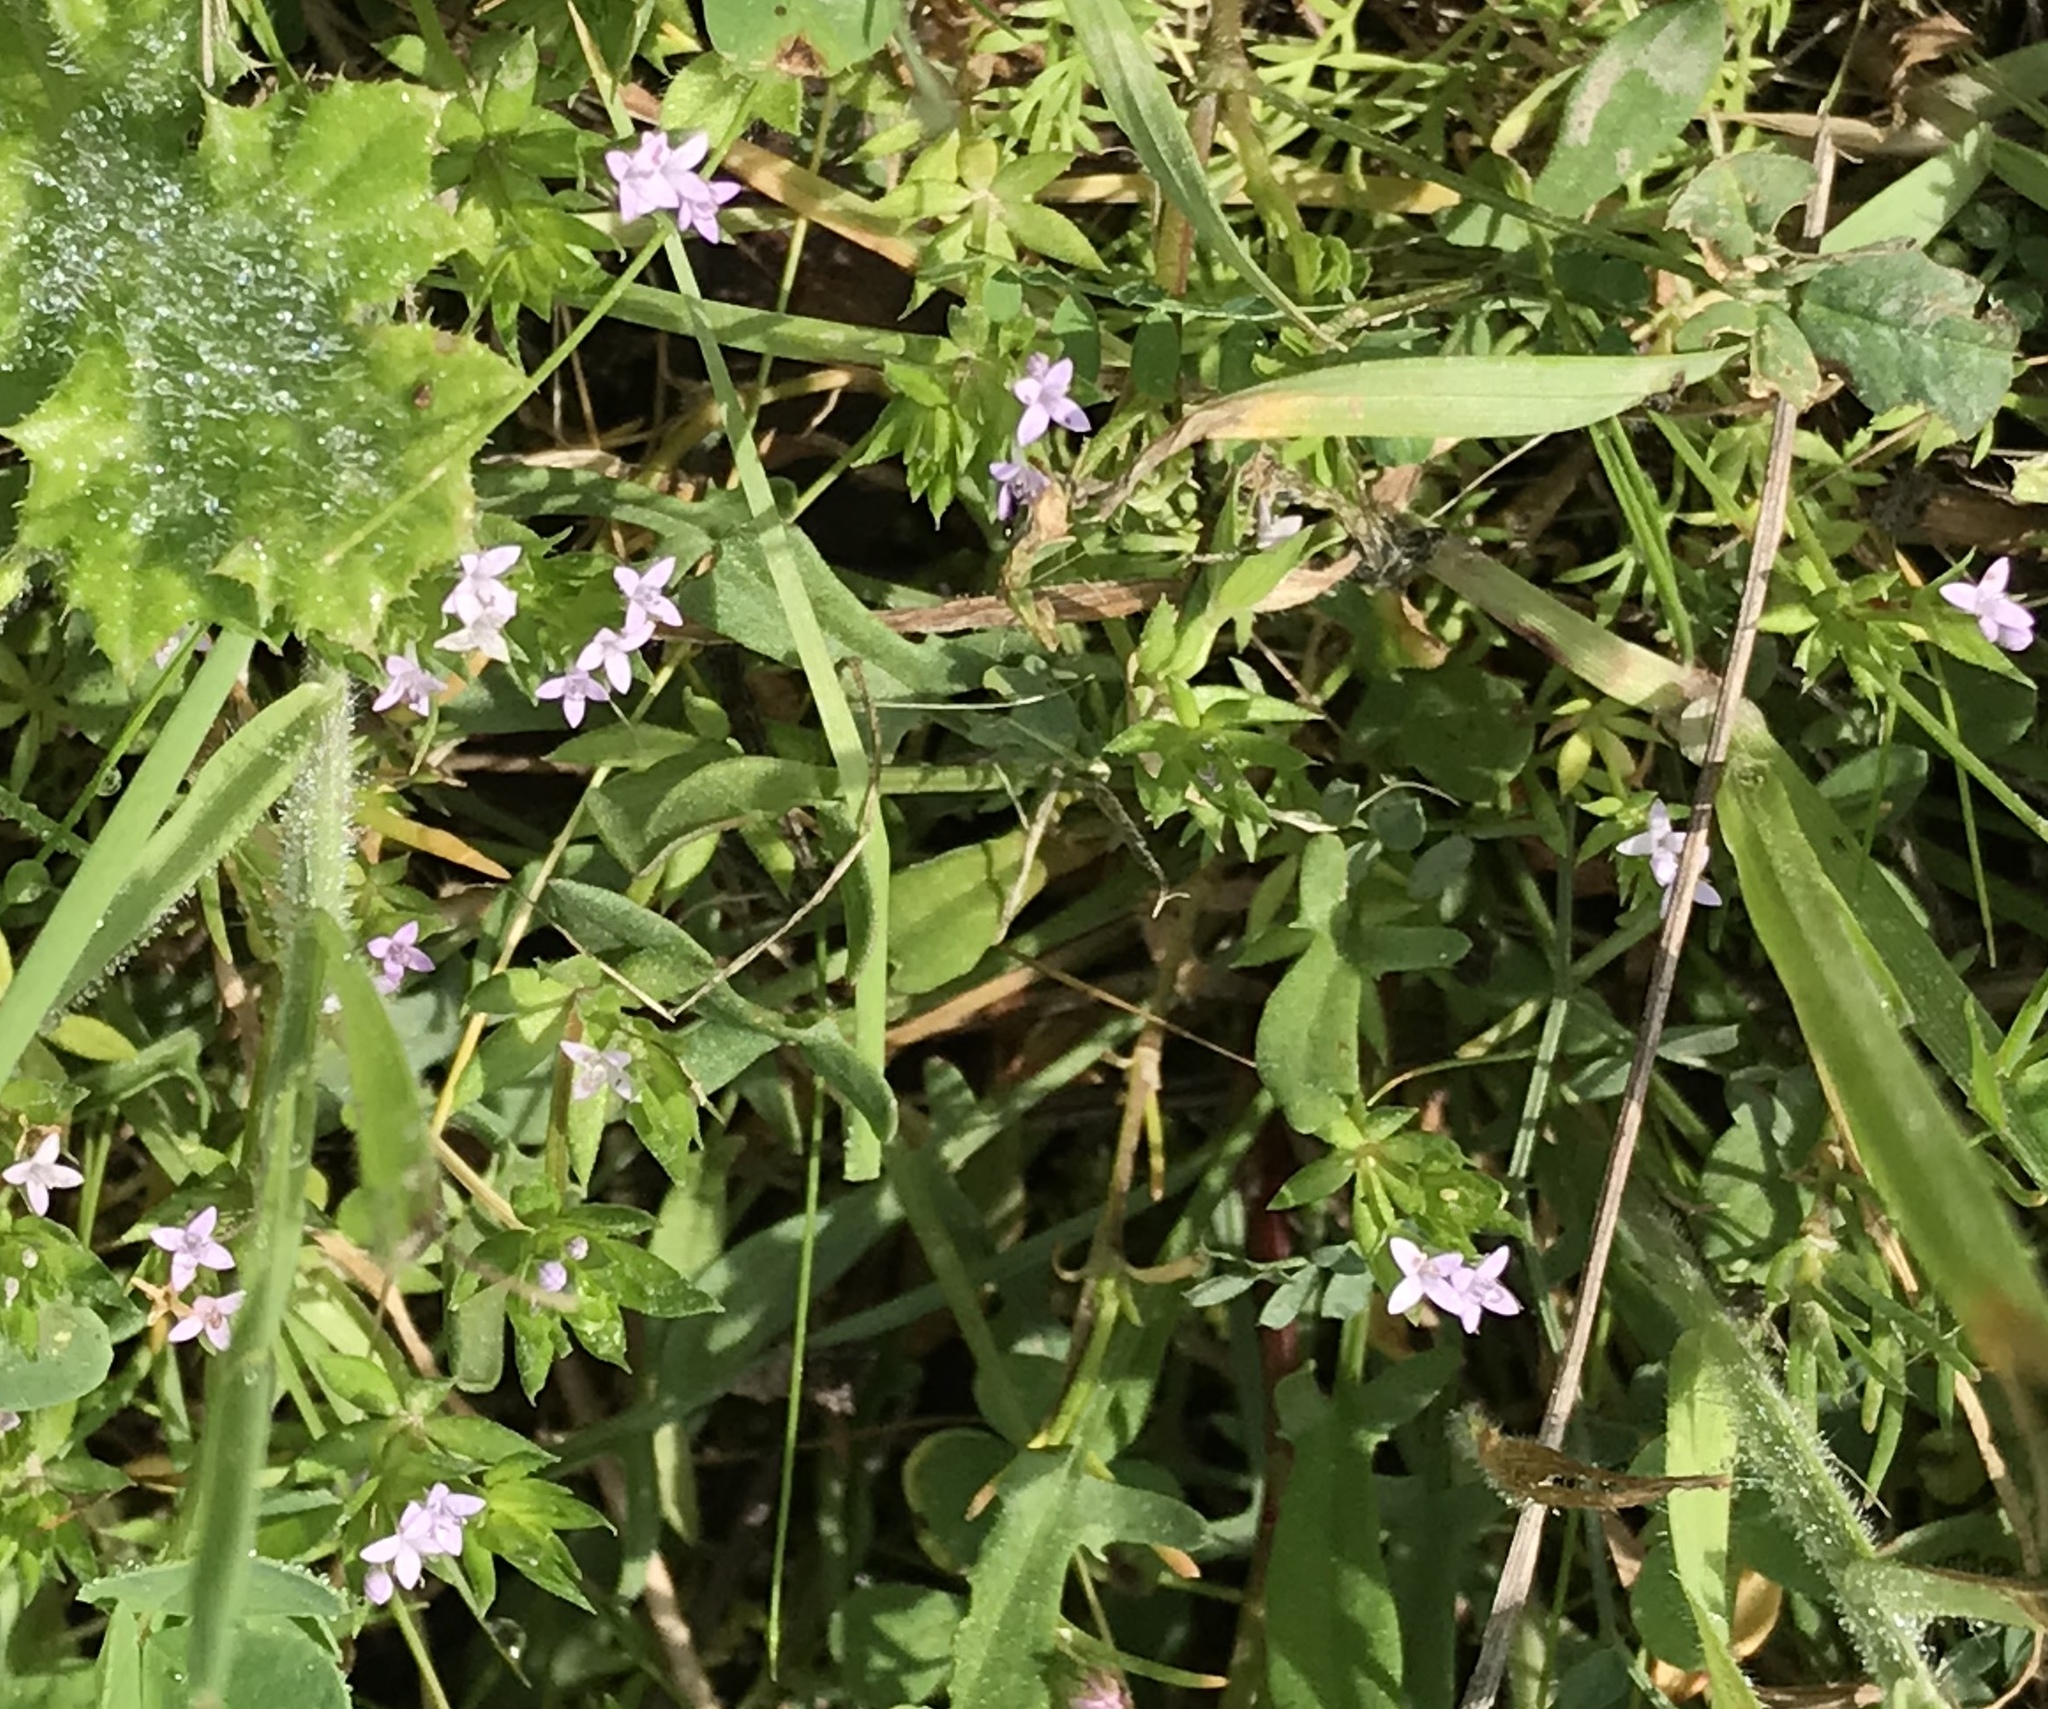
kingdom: Plantae
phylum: Tracheophyta
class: Magnoliopsida
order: Gentianales
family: Rubiaceae
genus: Sherardia
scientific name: Sherardia arvensis
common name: Field madder
